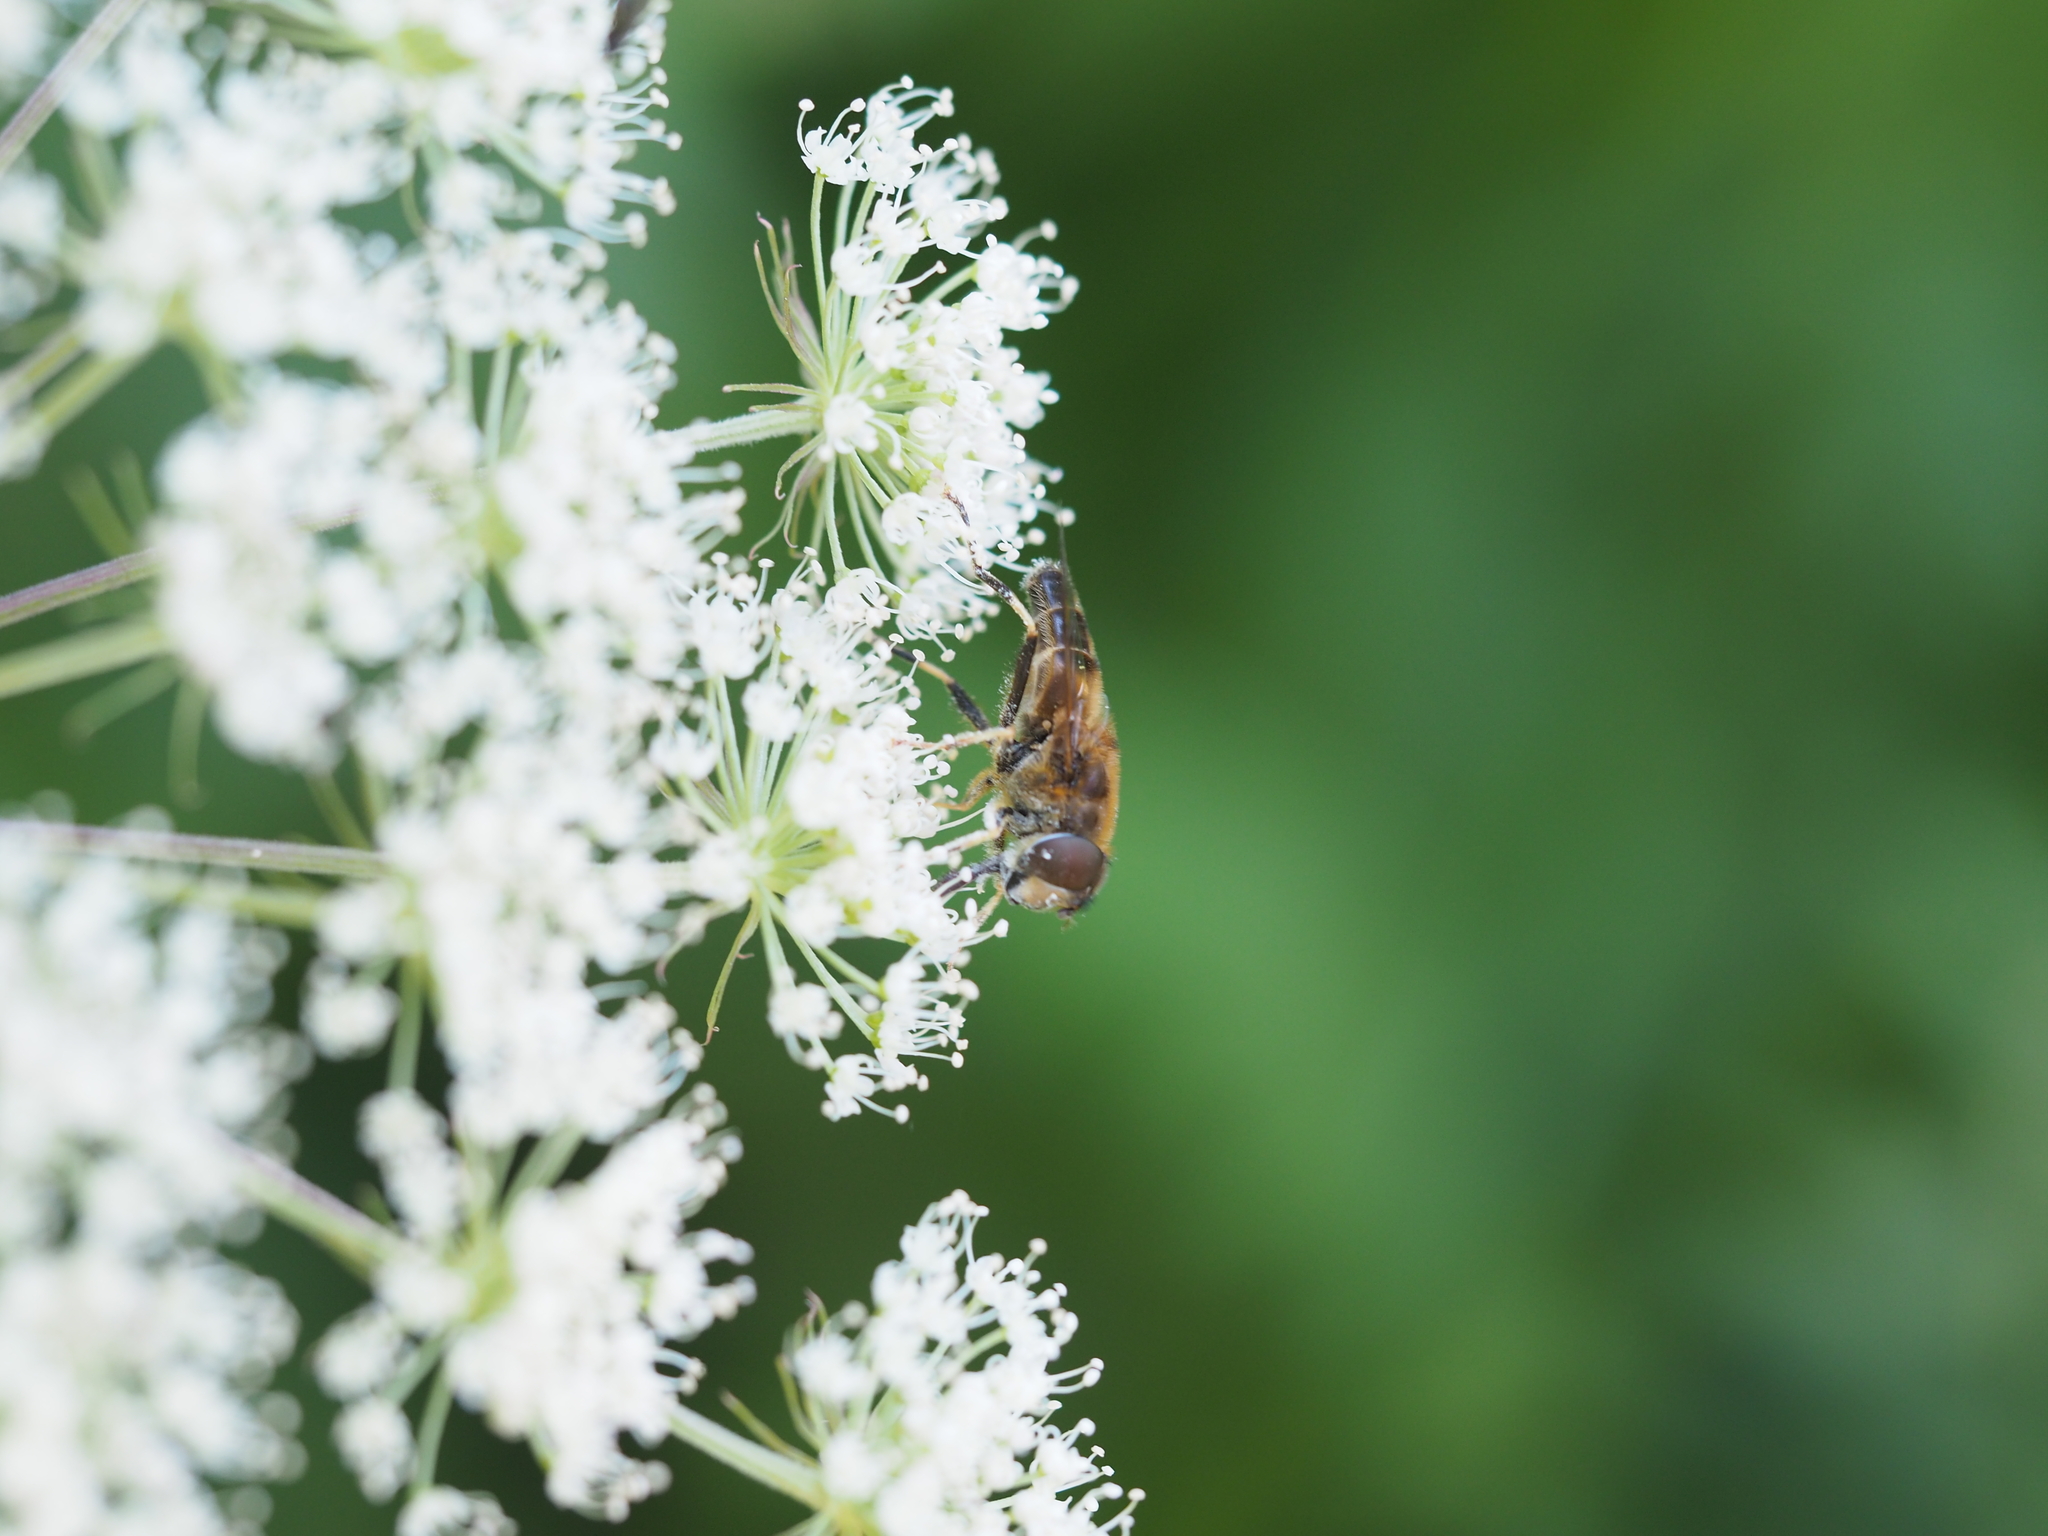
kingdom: Animalia
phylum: Arthropoda
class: Insecta
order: Diptera
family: Syrphidae
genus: Eristalis
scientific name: Eristalis pertinax
